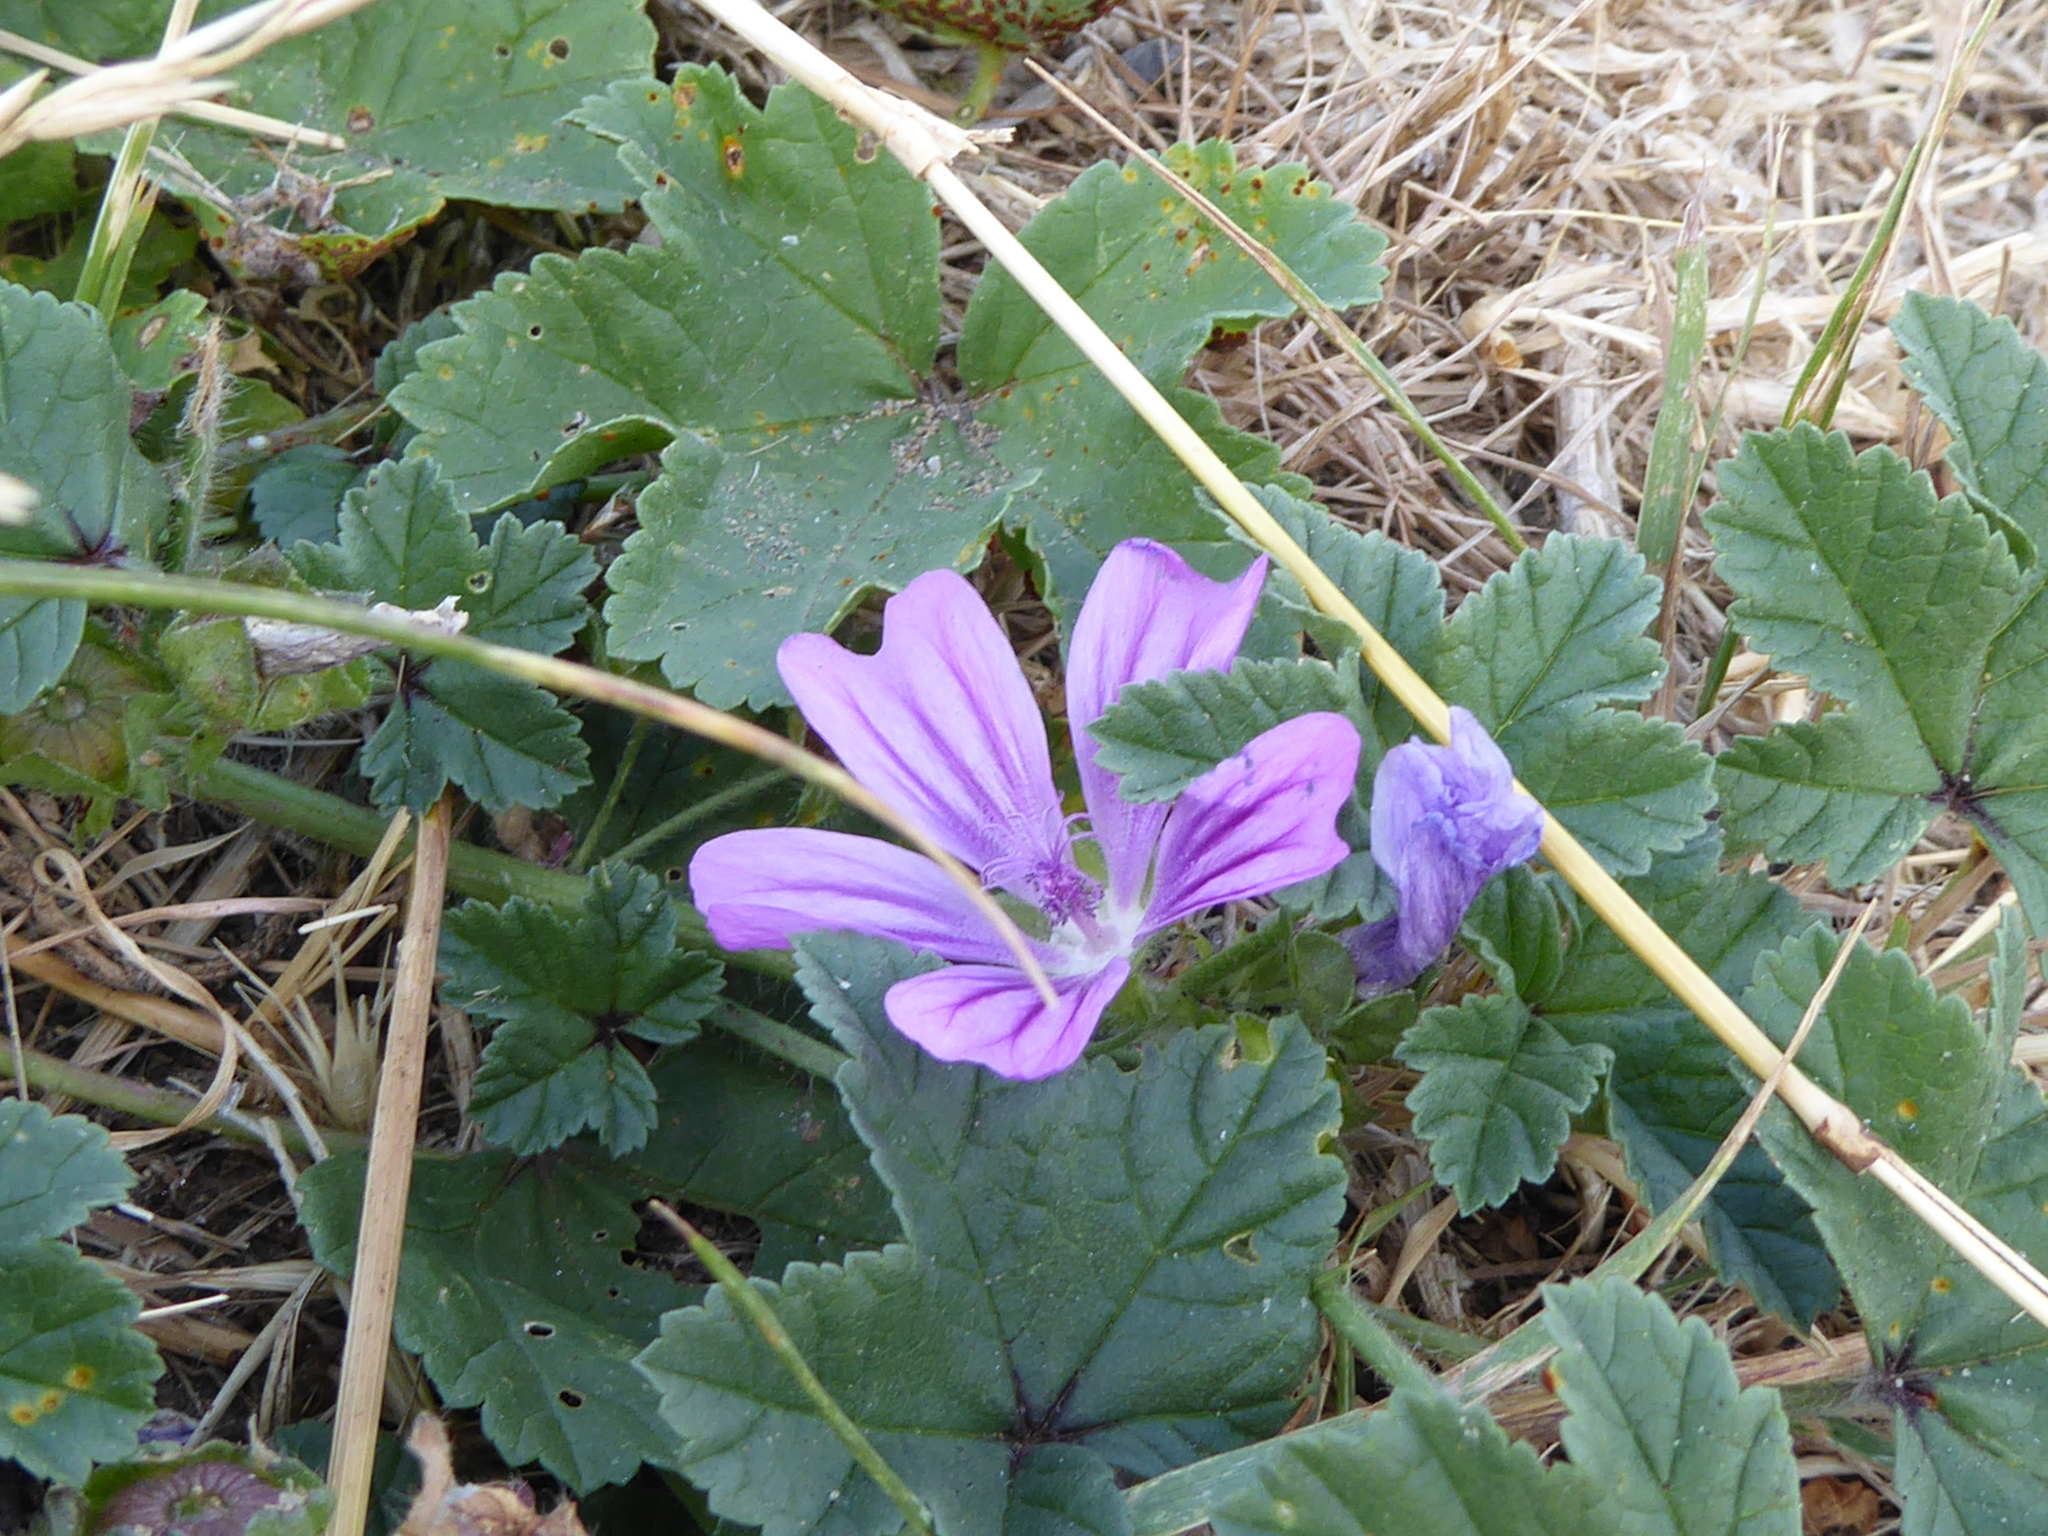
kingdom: Plantae
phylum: Tracheophyta
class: Magnoliopsida
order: Malvales
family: Malvaceae
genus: Malva
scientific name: Malva sylvestris
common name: Common mallow
